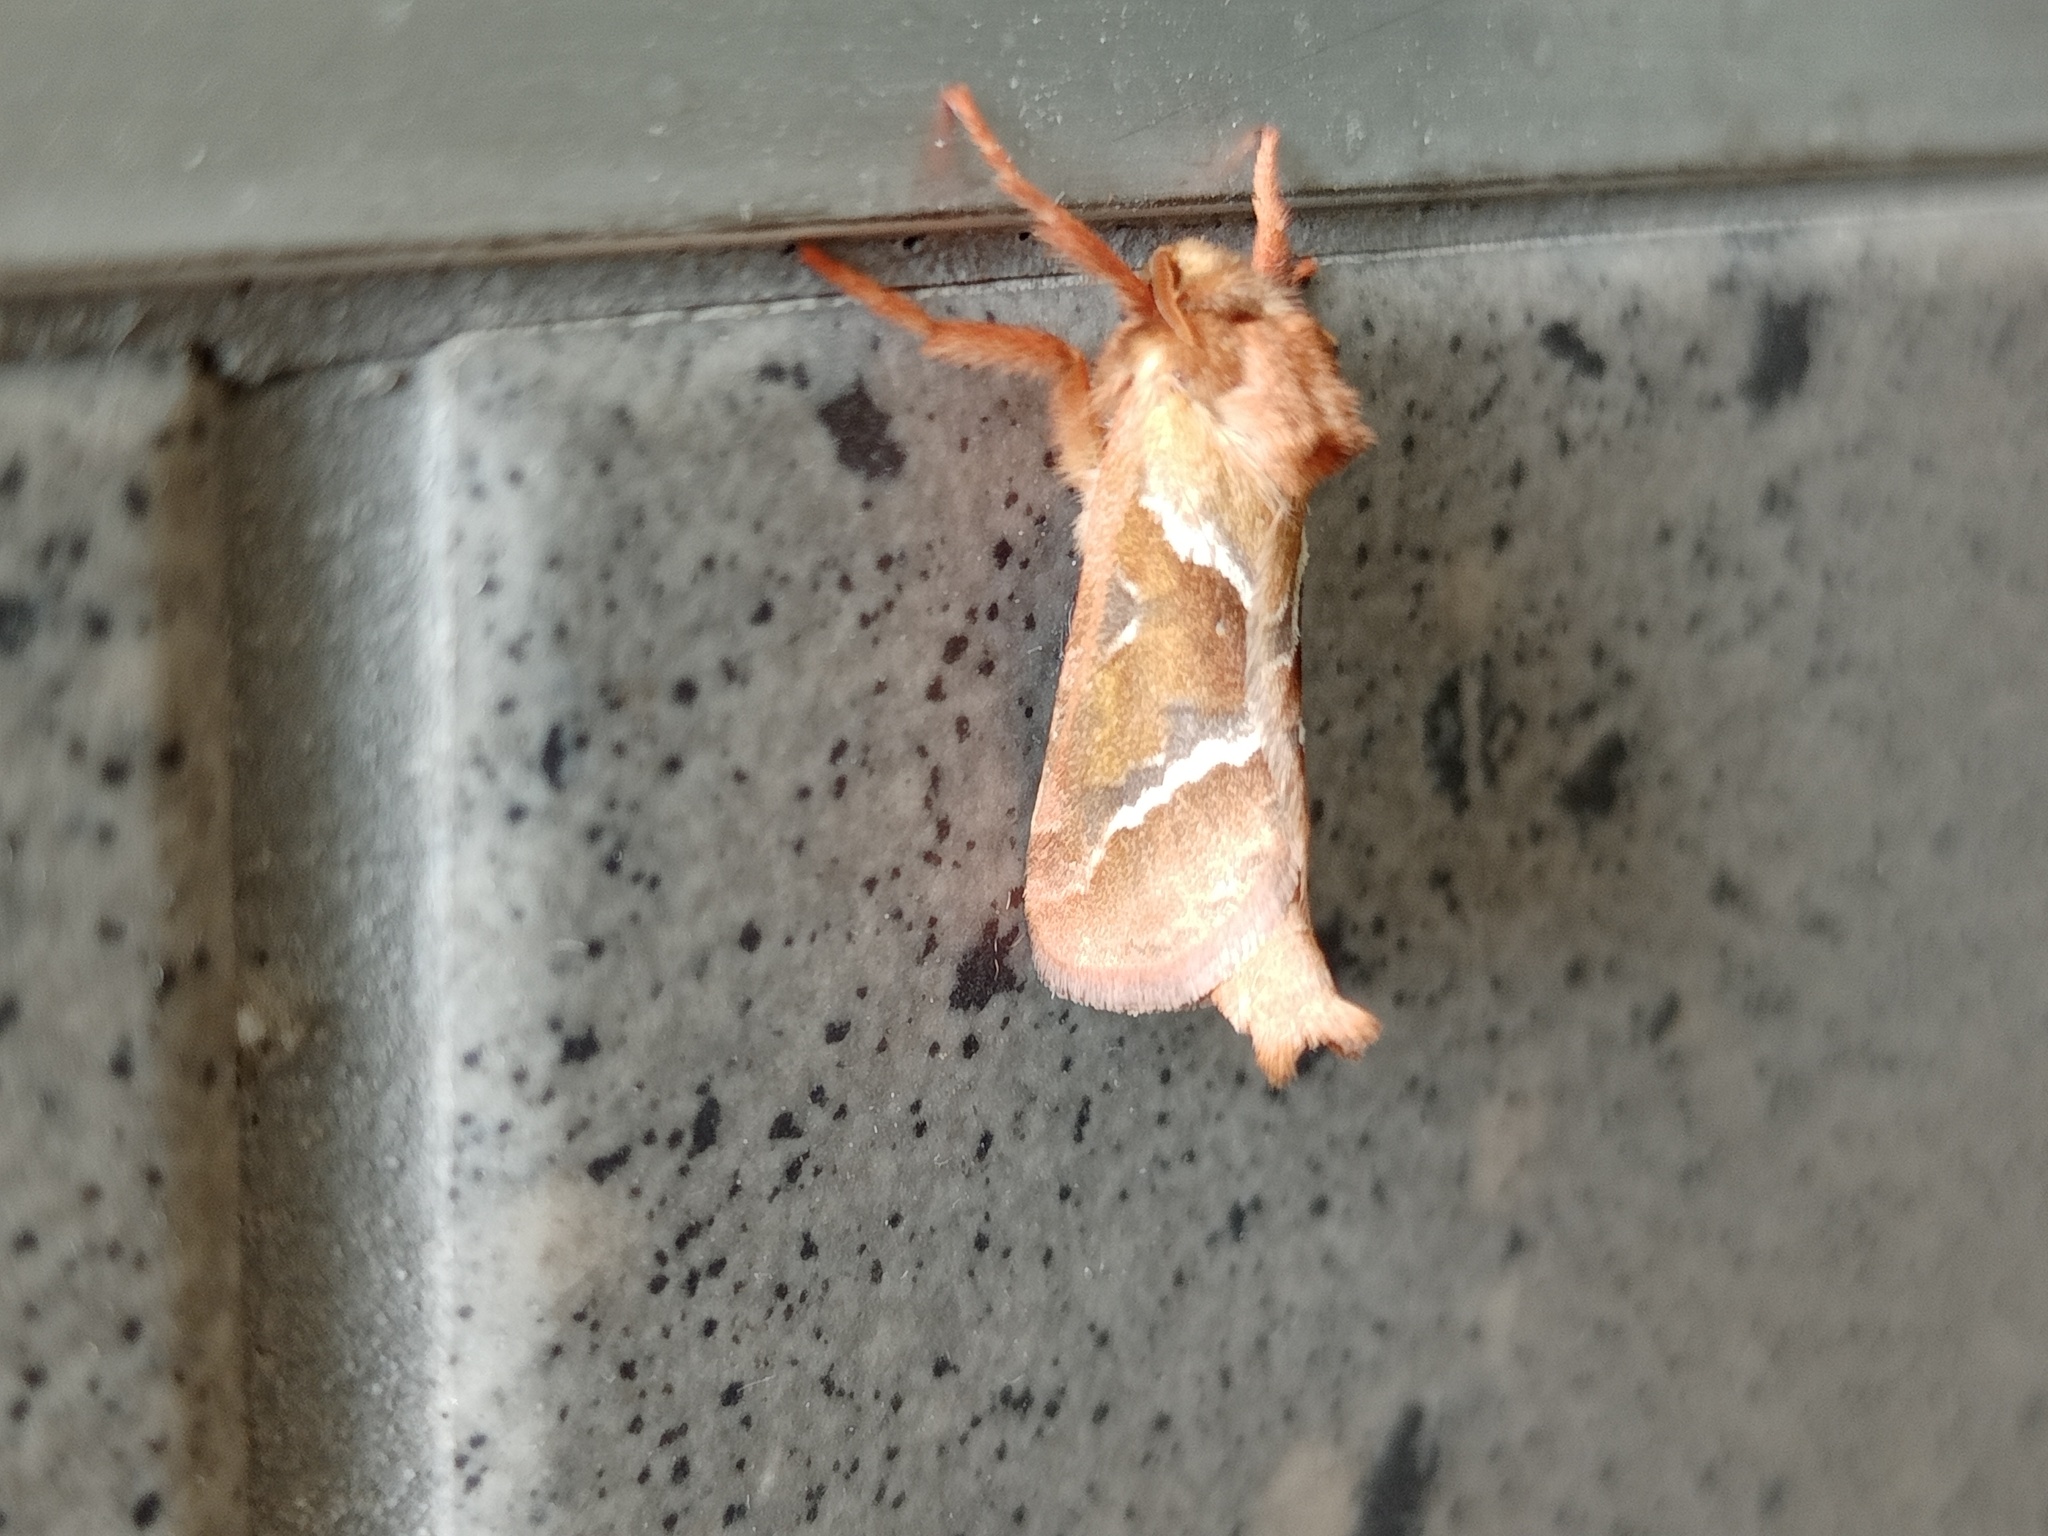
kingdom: Animalia
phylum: Arthropoda
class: Insecta
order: Lepidoptera
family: Hepialidae
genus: Triodia
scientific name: Triodia sylvina
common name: Orange swift
